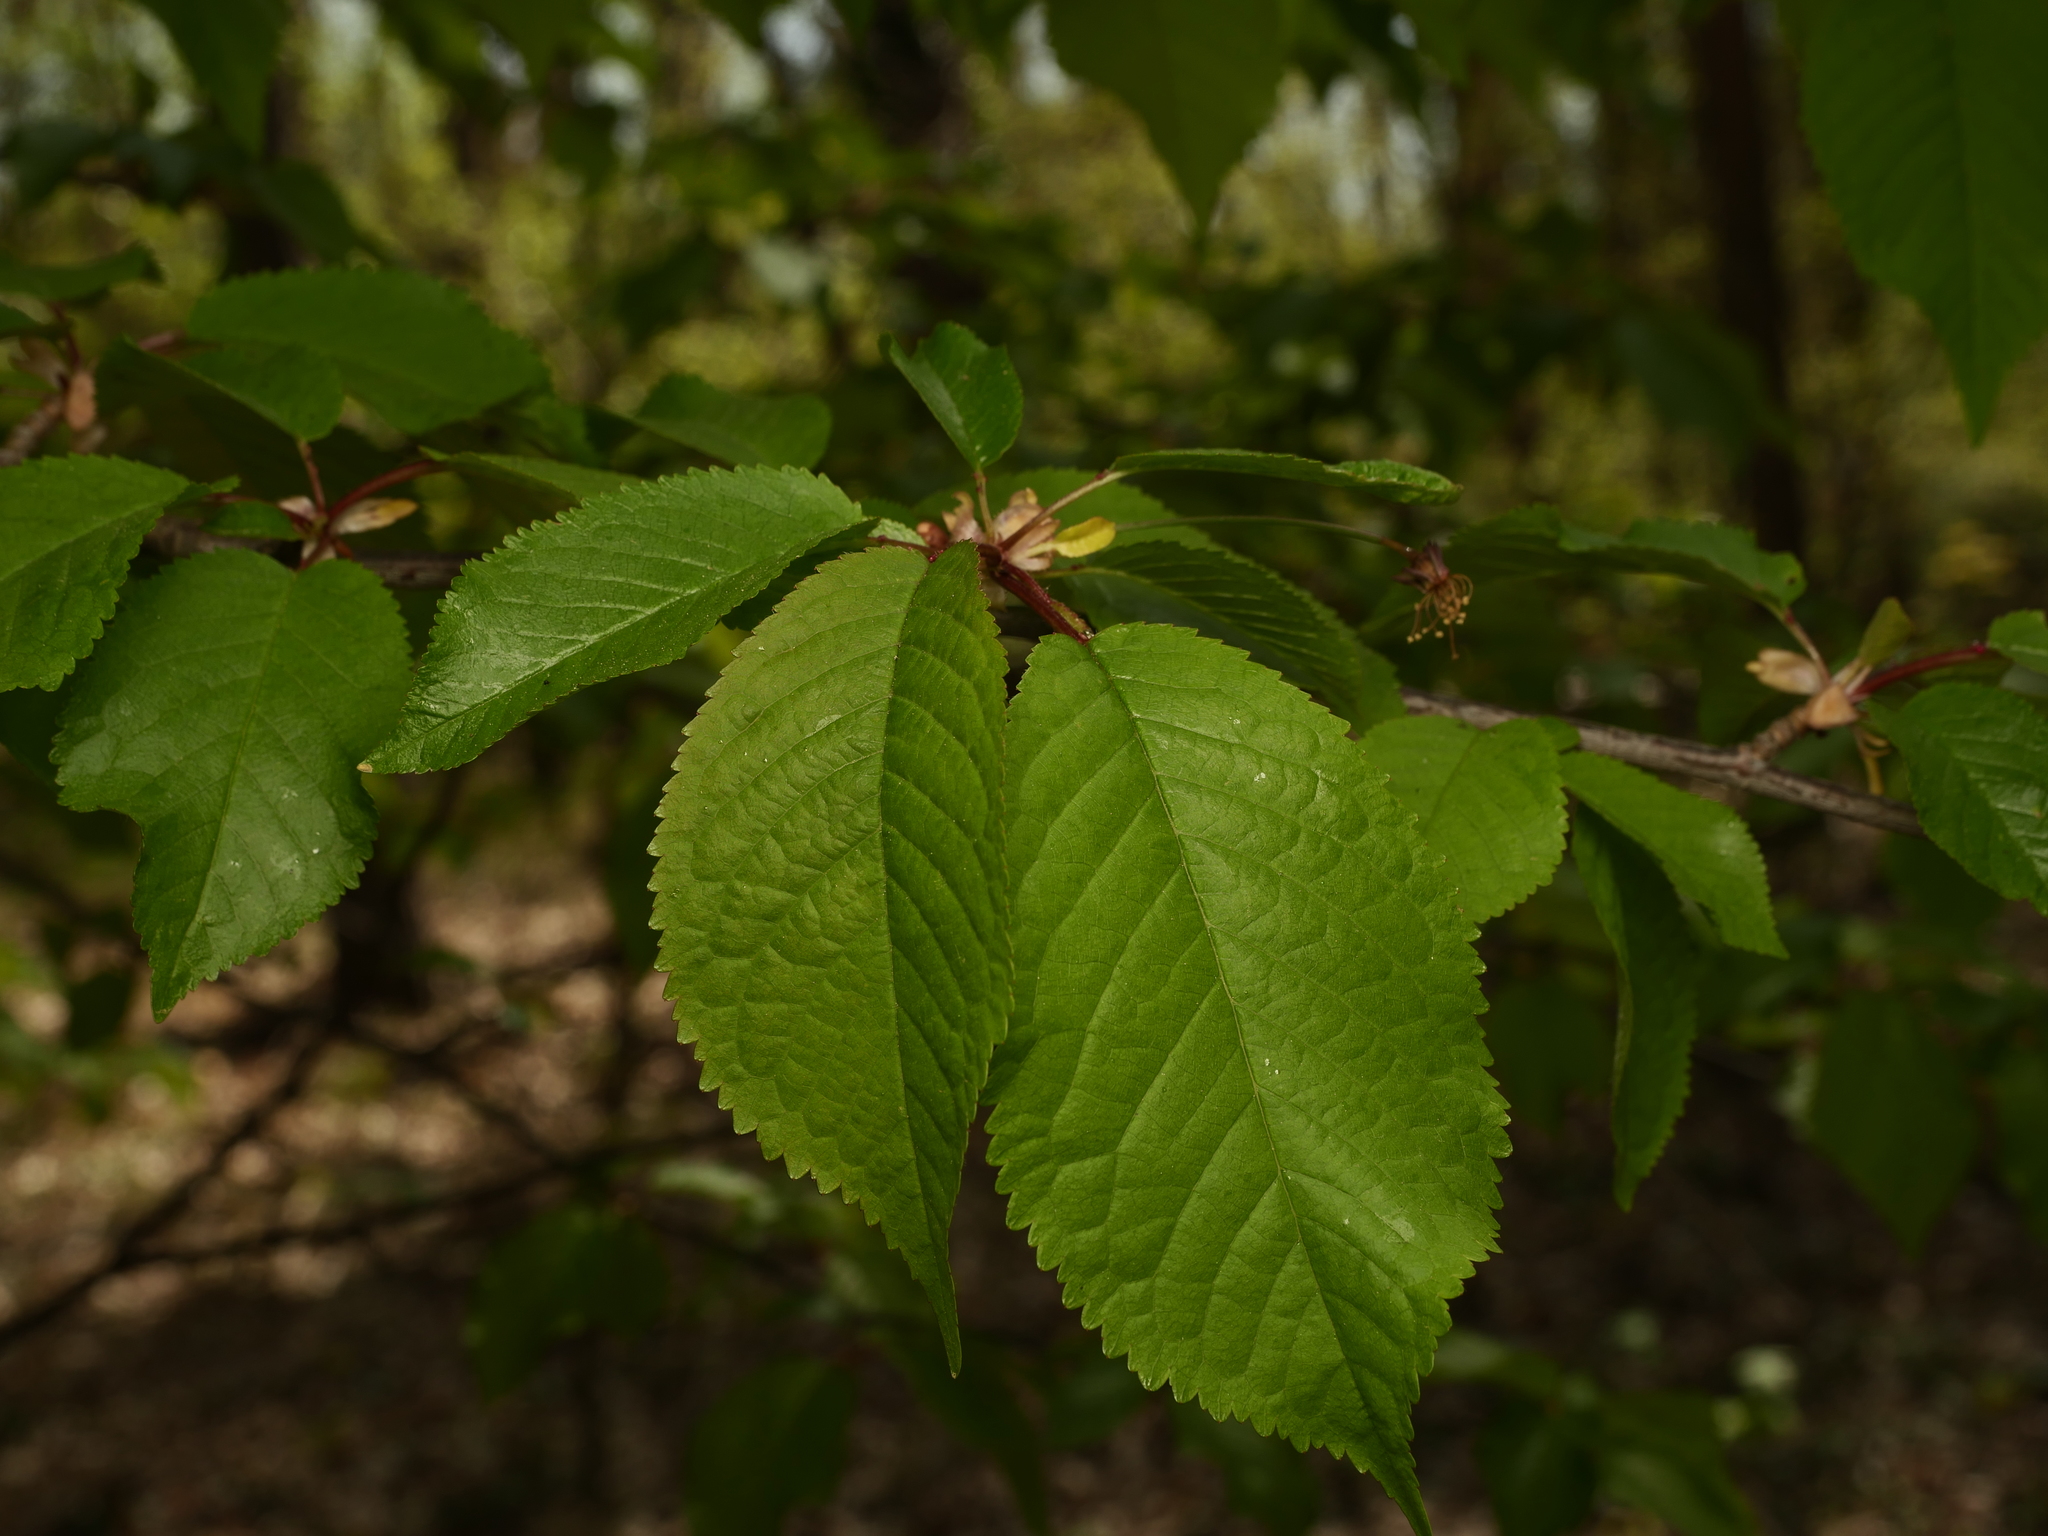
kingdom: Plantae
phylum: Tracheophyta
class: Magnoliopsida
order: Rosales
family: Rosaceae
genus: Prunus
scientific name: Prunus avium
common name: Sweet cherry
